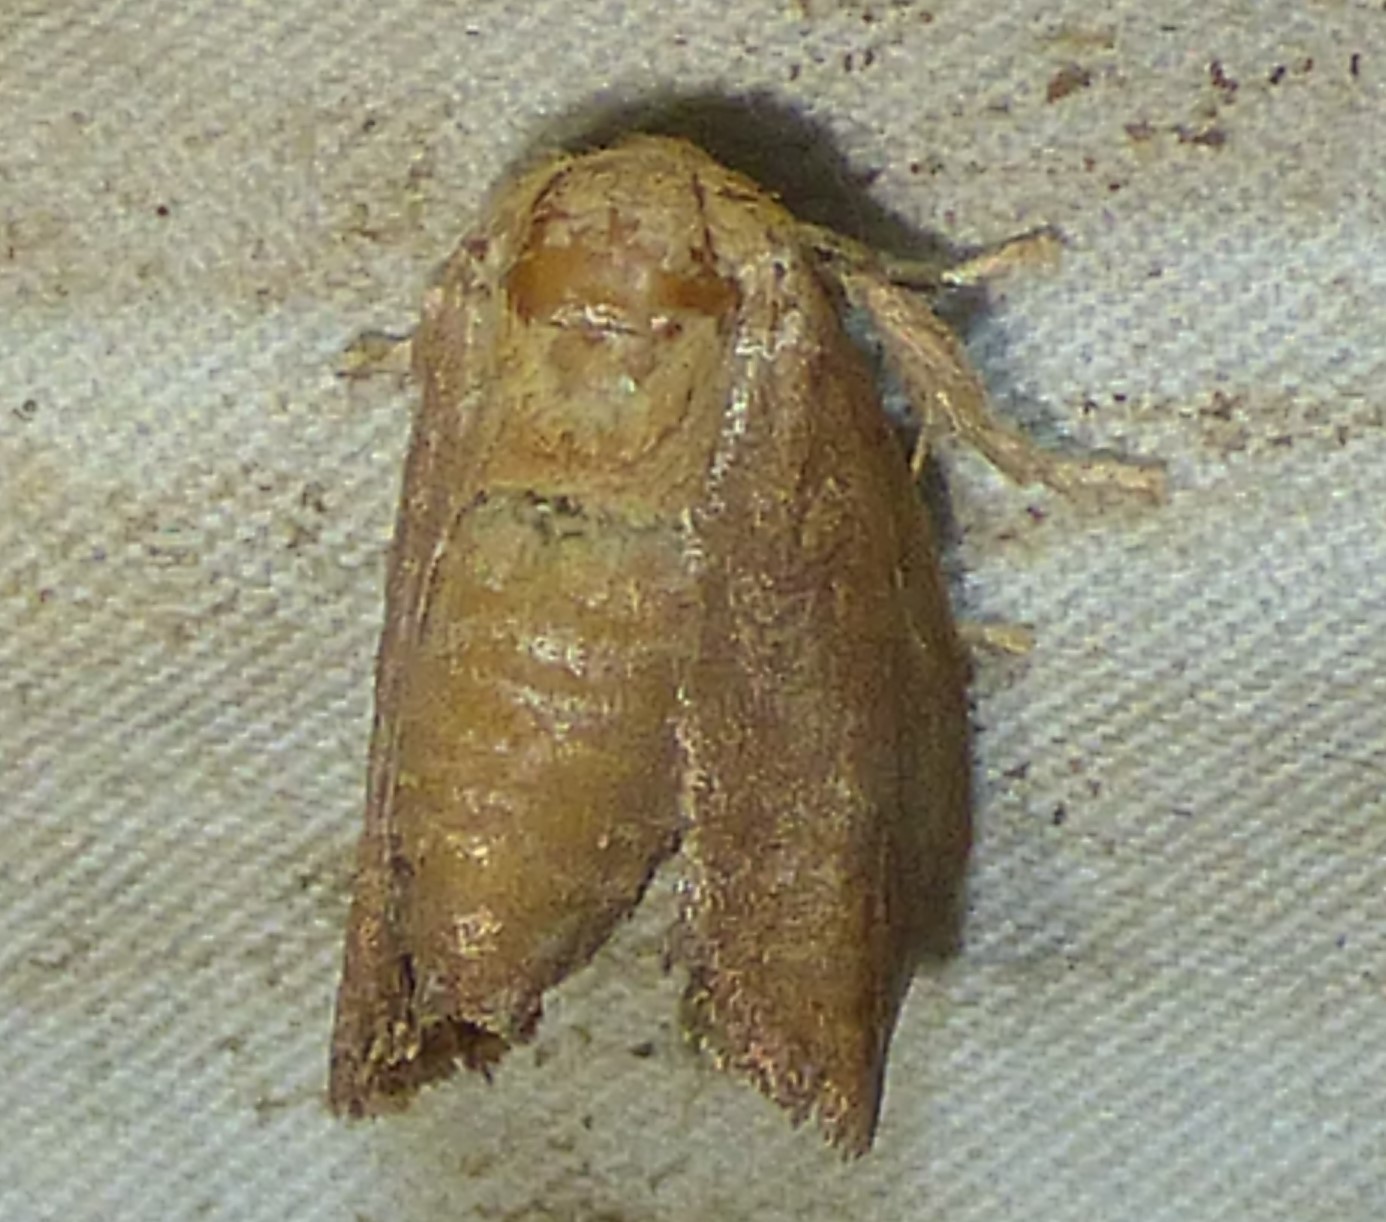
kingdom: Animalia
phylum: Arthropoda
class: Insecta
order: Lepidoptera
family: Limacodidae
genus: Isa
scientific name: Isa textula
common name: Crowned slug moth
